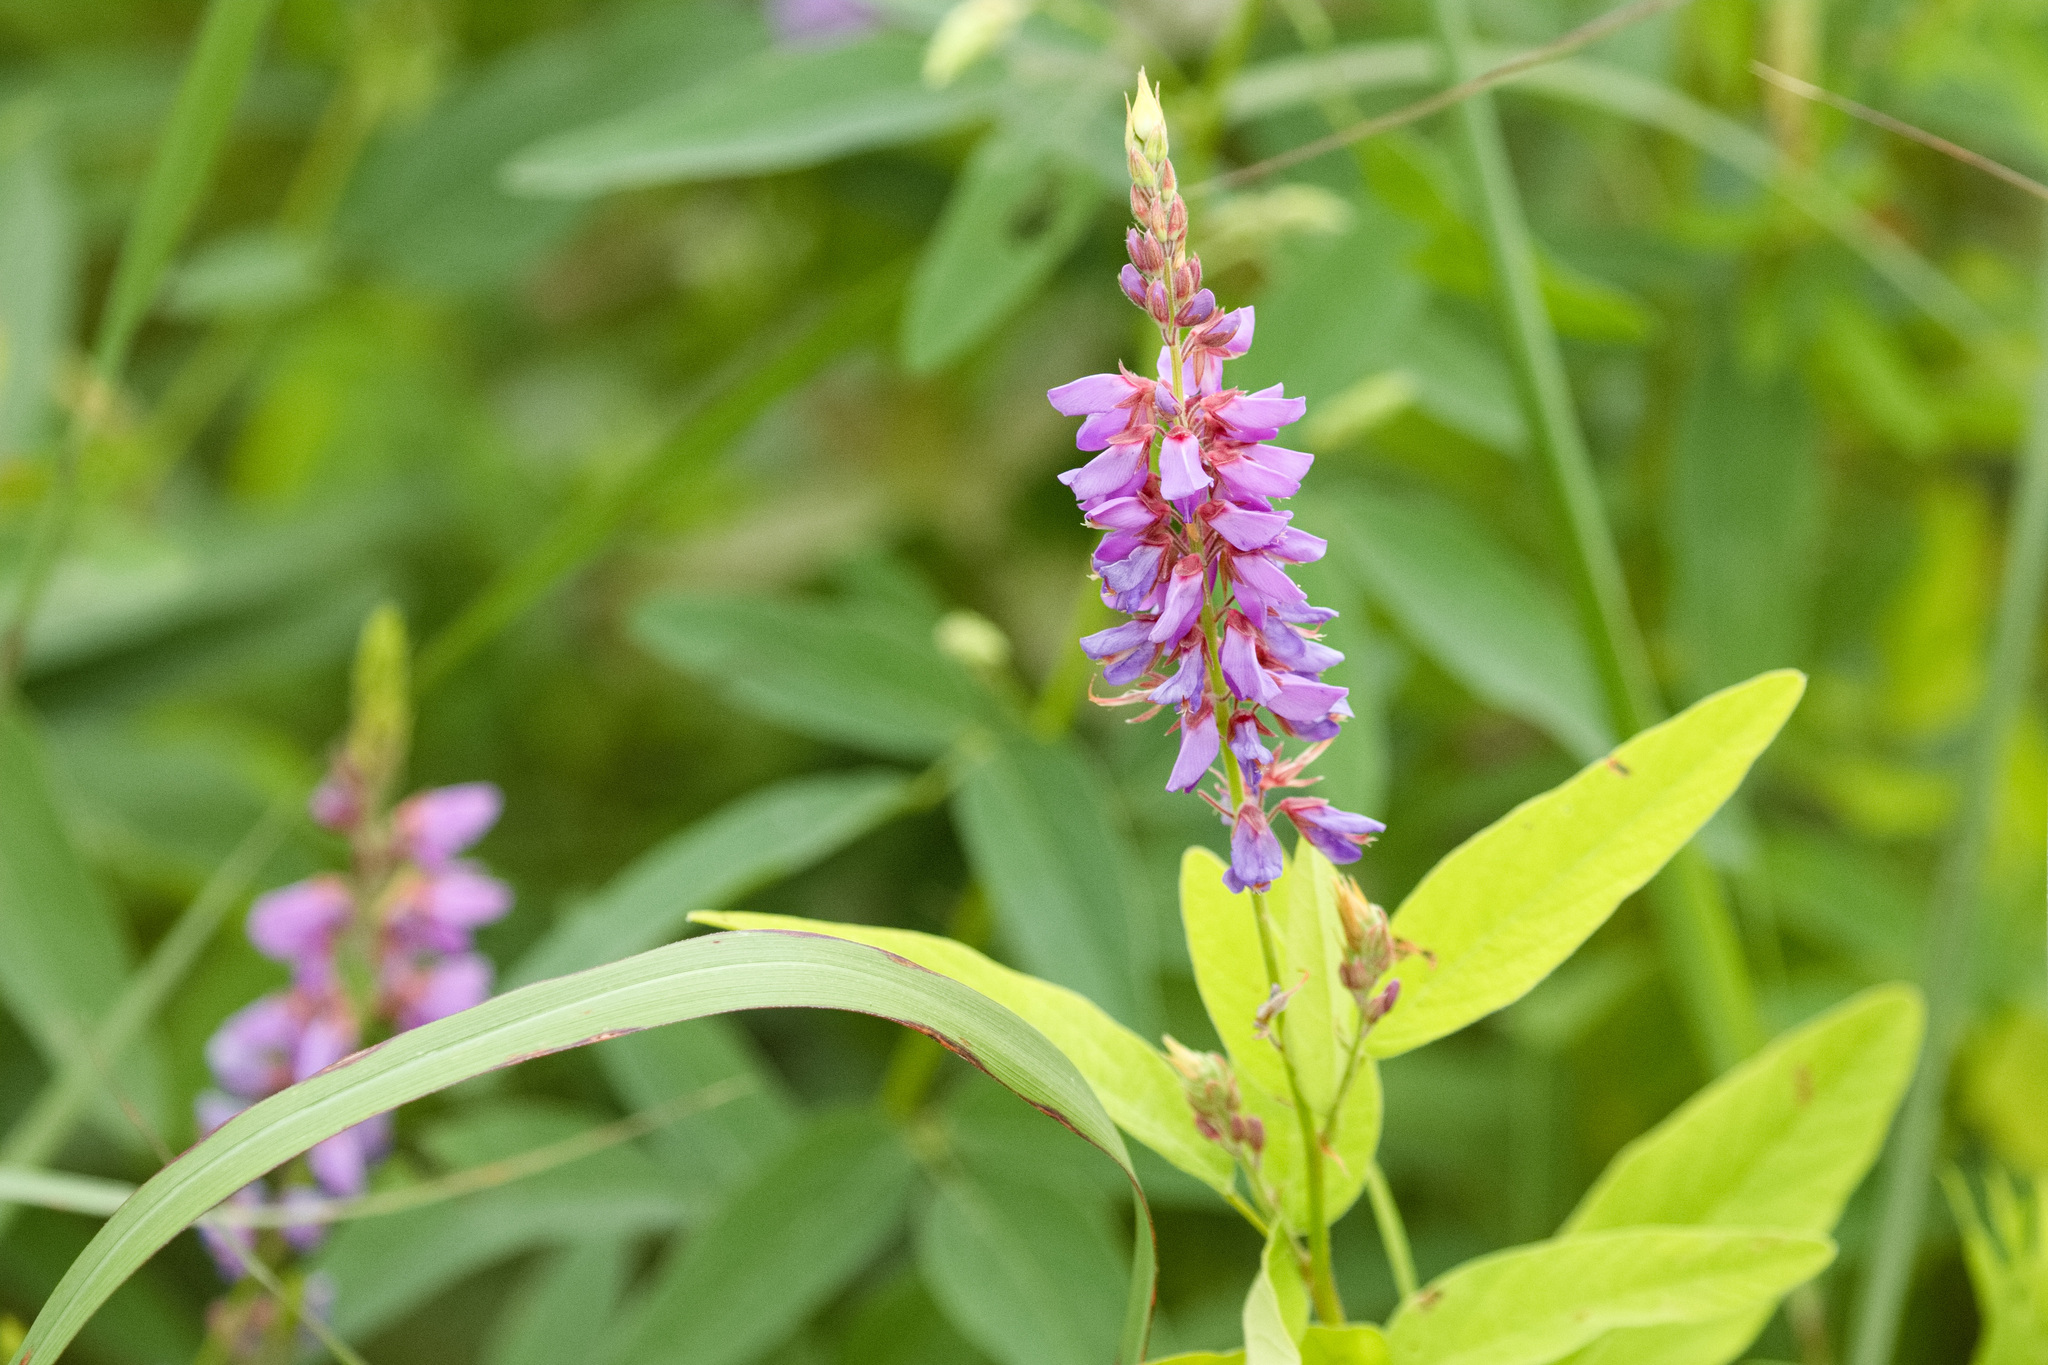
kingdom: Plantae
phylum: Tracheophyta
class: Magnoliopsida
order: Fabales
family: Fabaceae
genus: Desmodium
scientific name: Desmodium canadense
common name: Canada tick-trefoil
